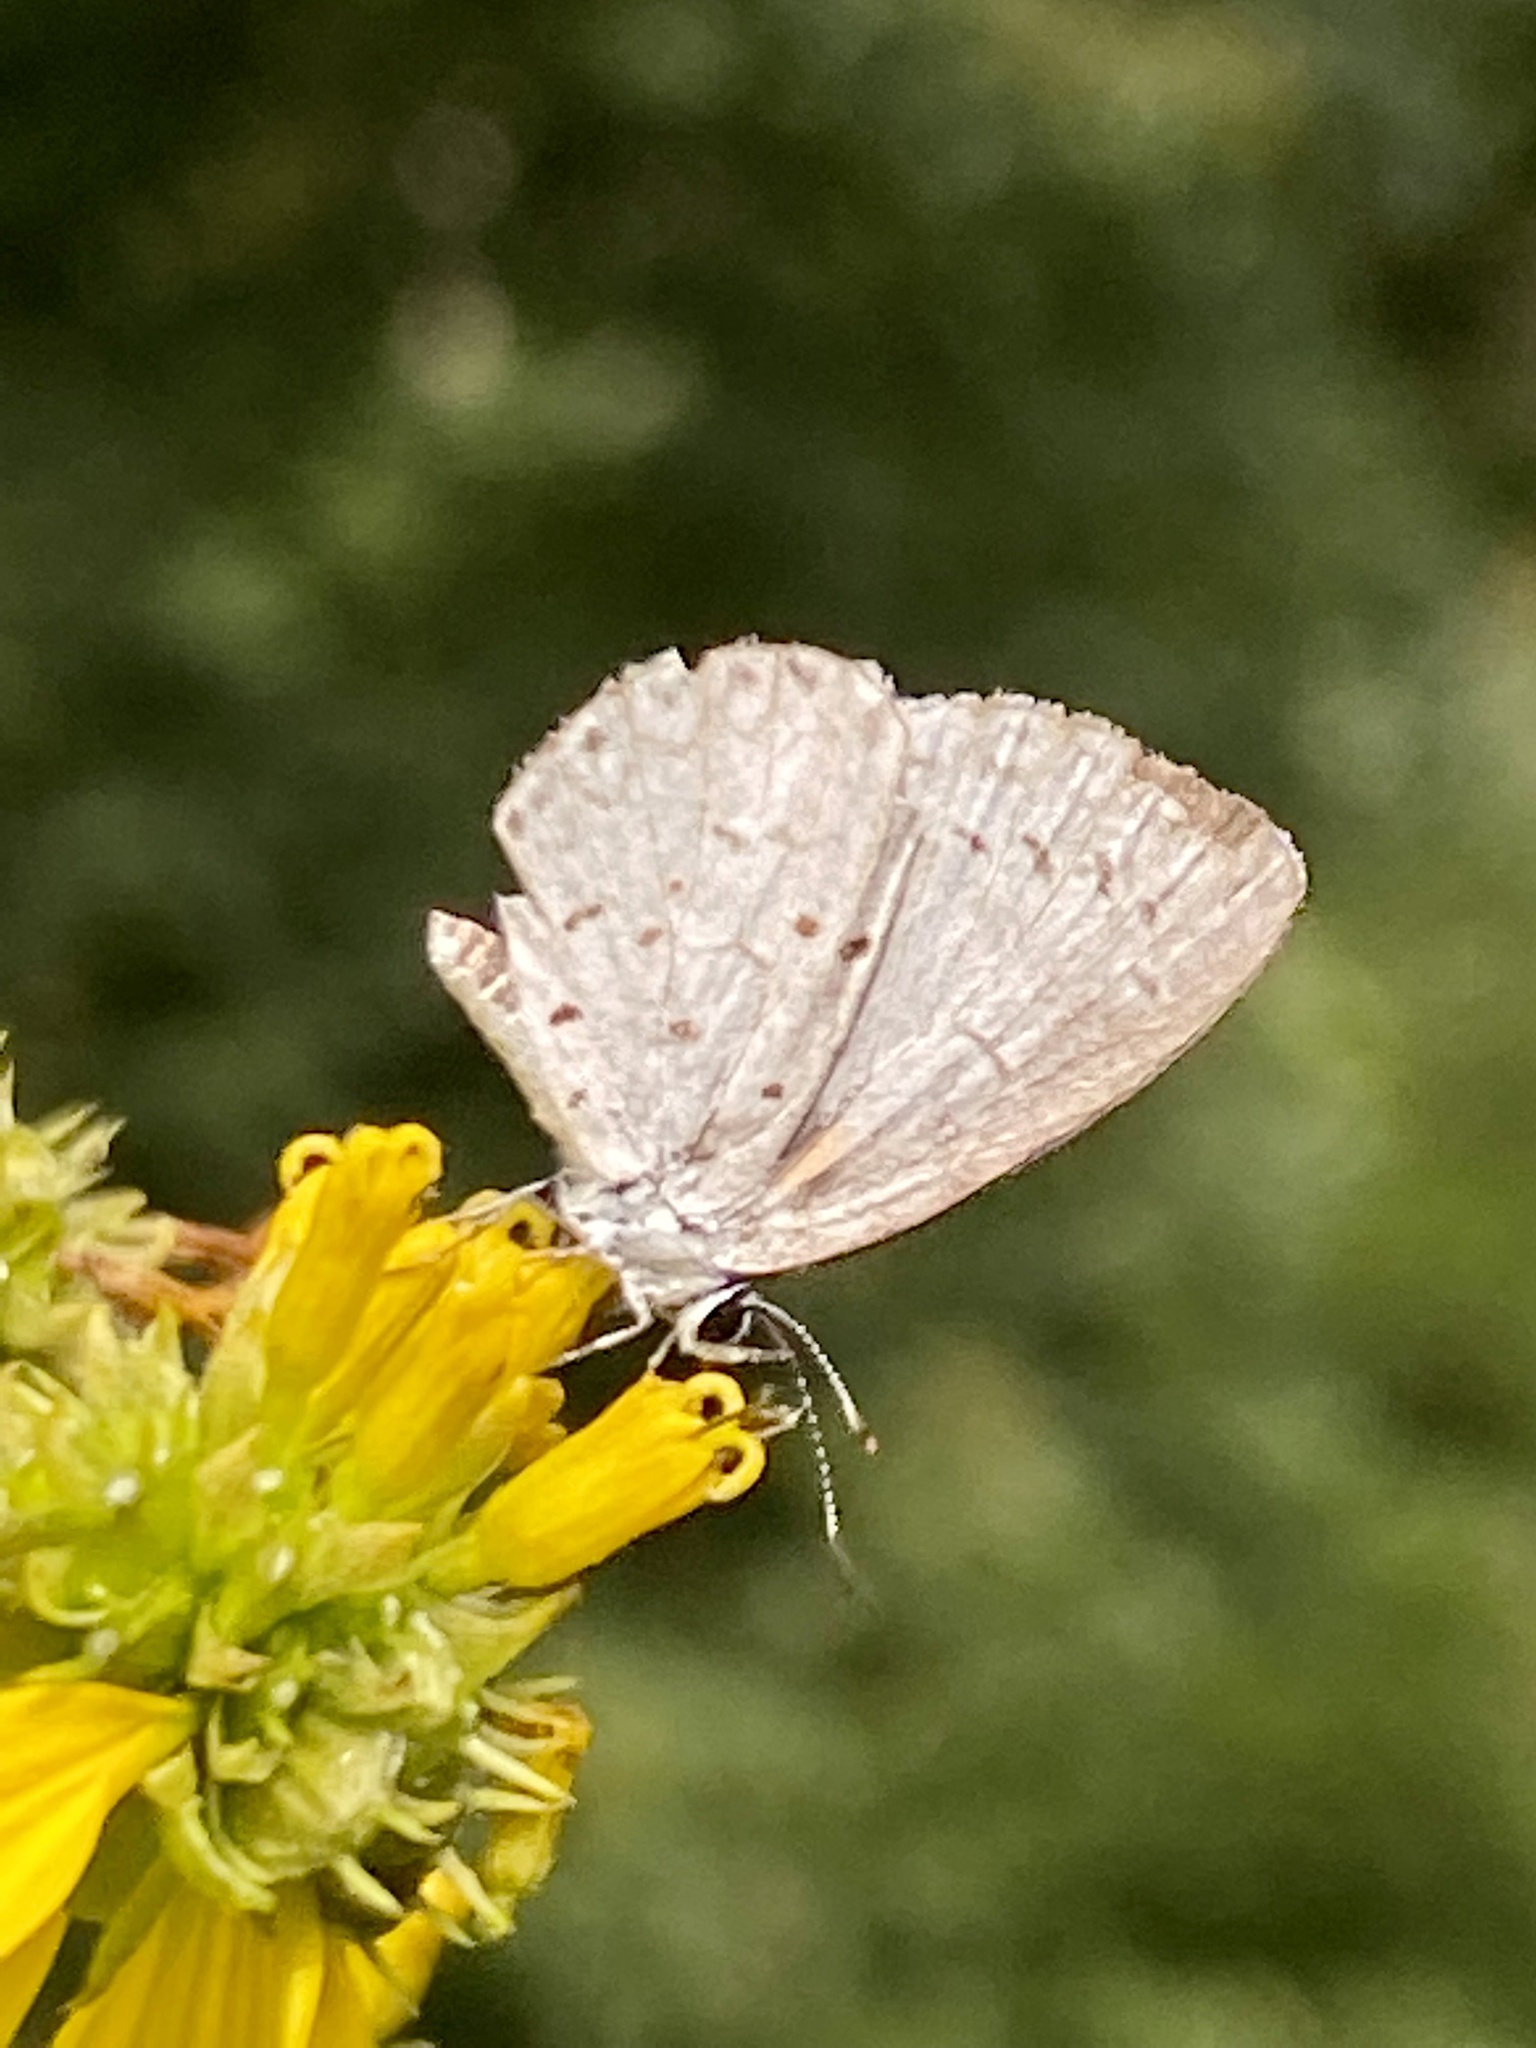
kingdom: Animalia
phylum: Arthropoda
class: Insecta
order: Lepidoptera
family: Lycaenidae
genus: Cyaniris
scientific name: Cyaniris neglecta
